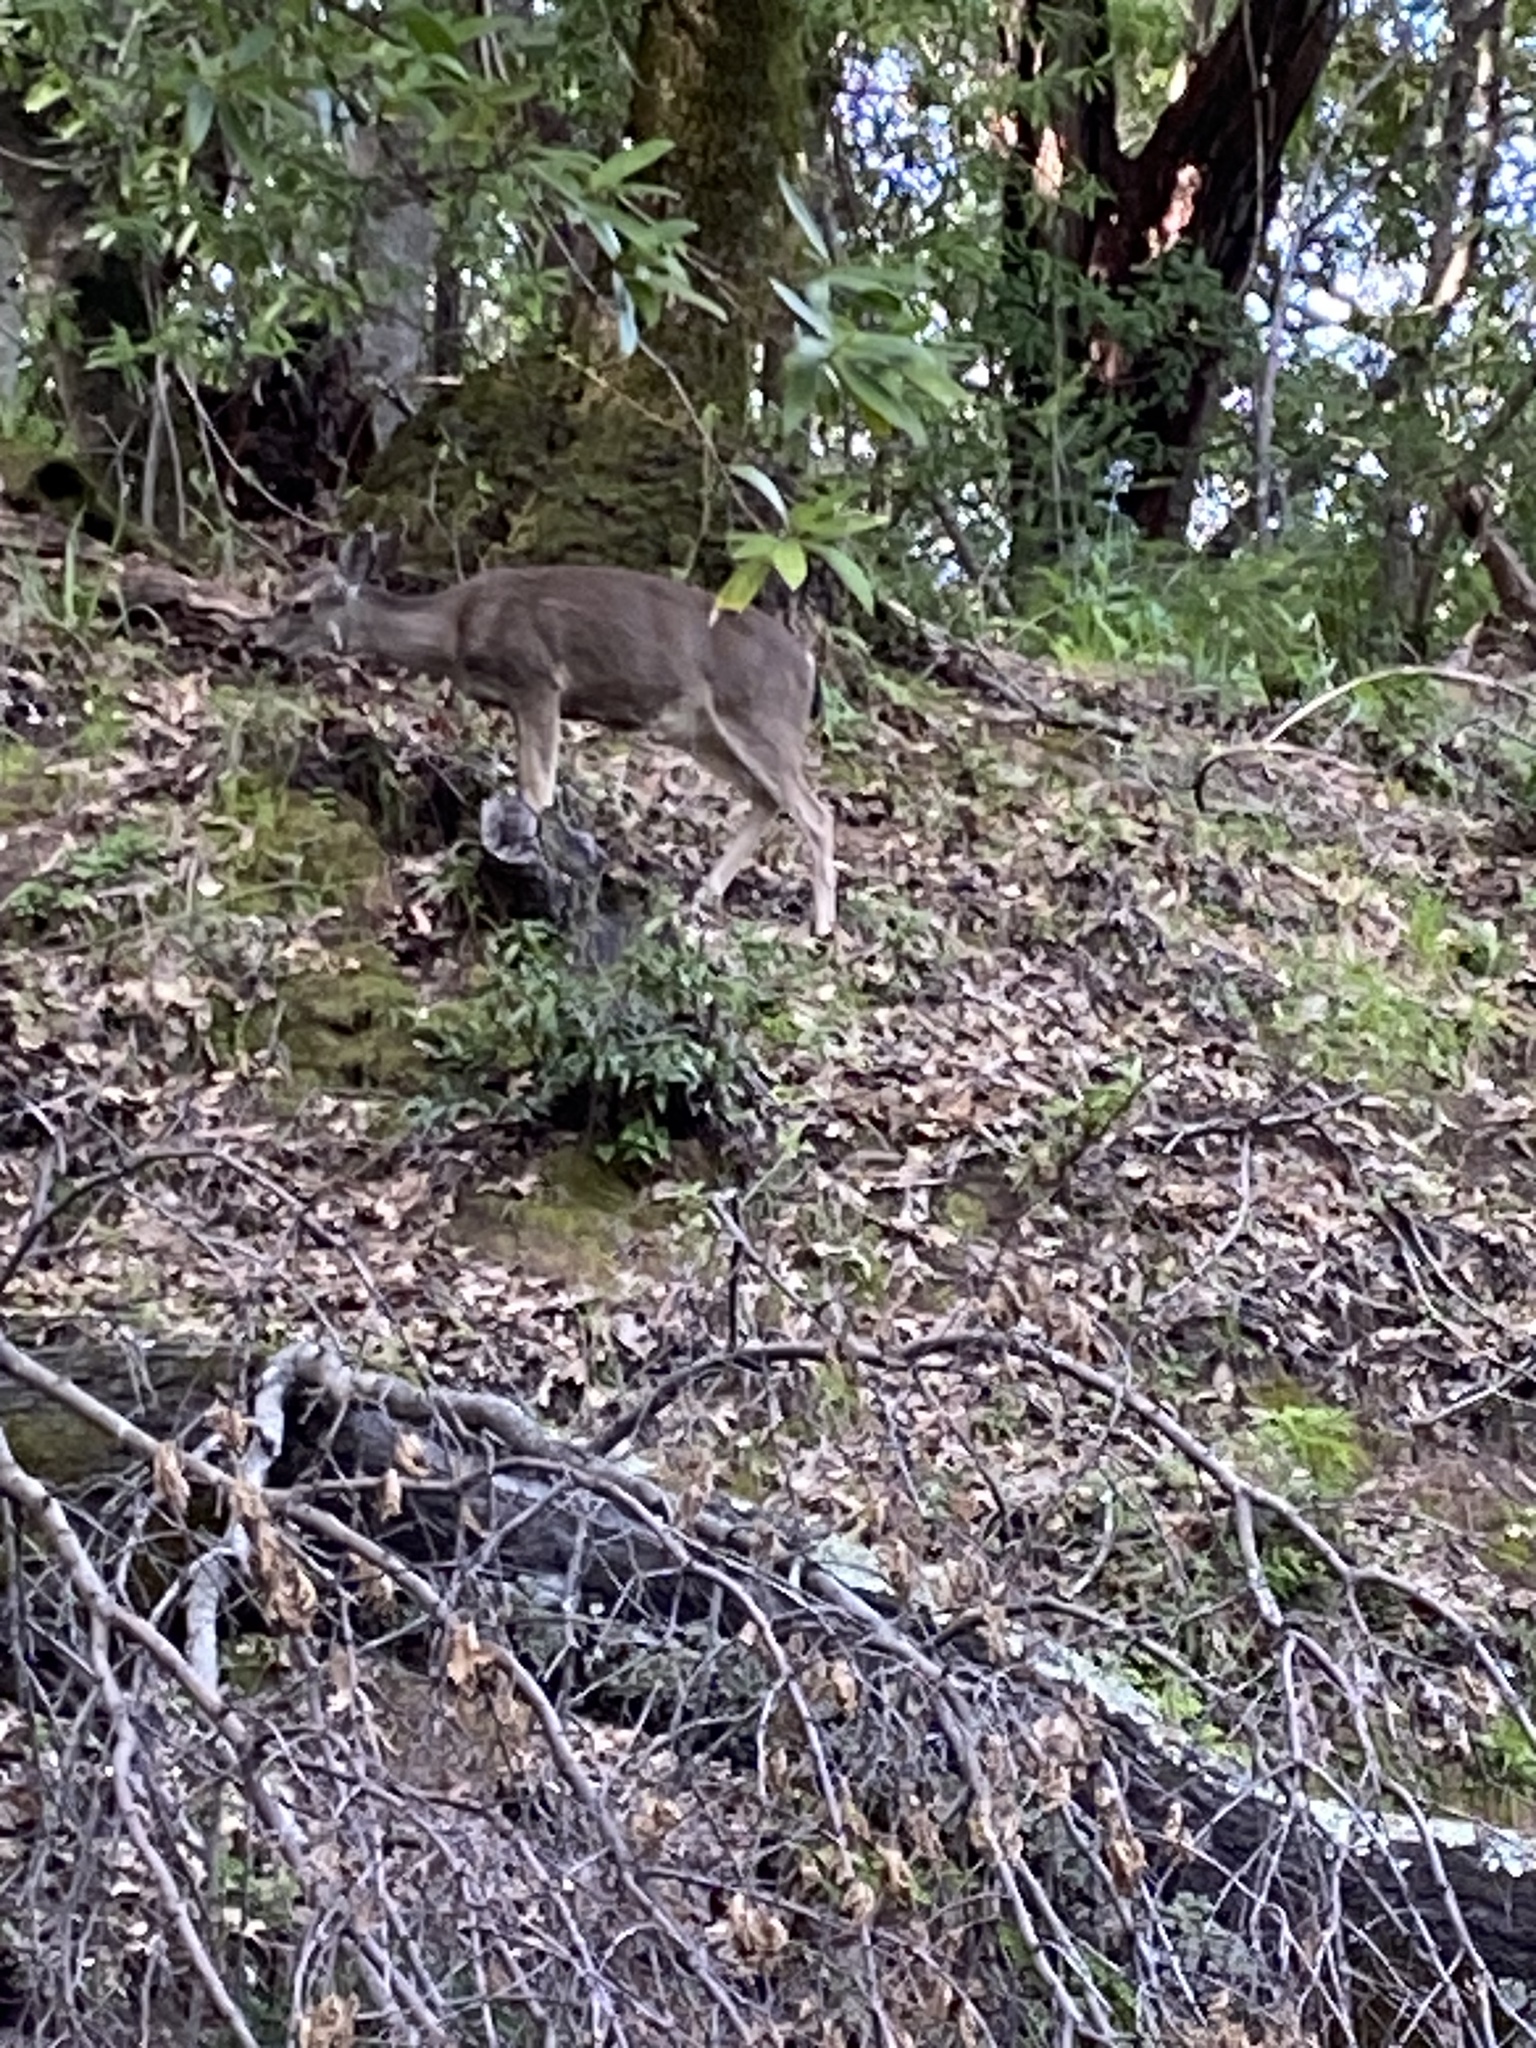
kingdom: Animalia
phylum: Chordata
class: Mammalia
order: Artiodactyla
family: Cervidae
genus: Odocoileus
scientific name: Odocoileus hemionus
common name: Mule deer
